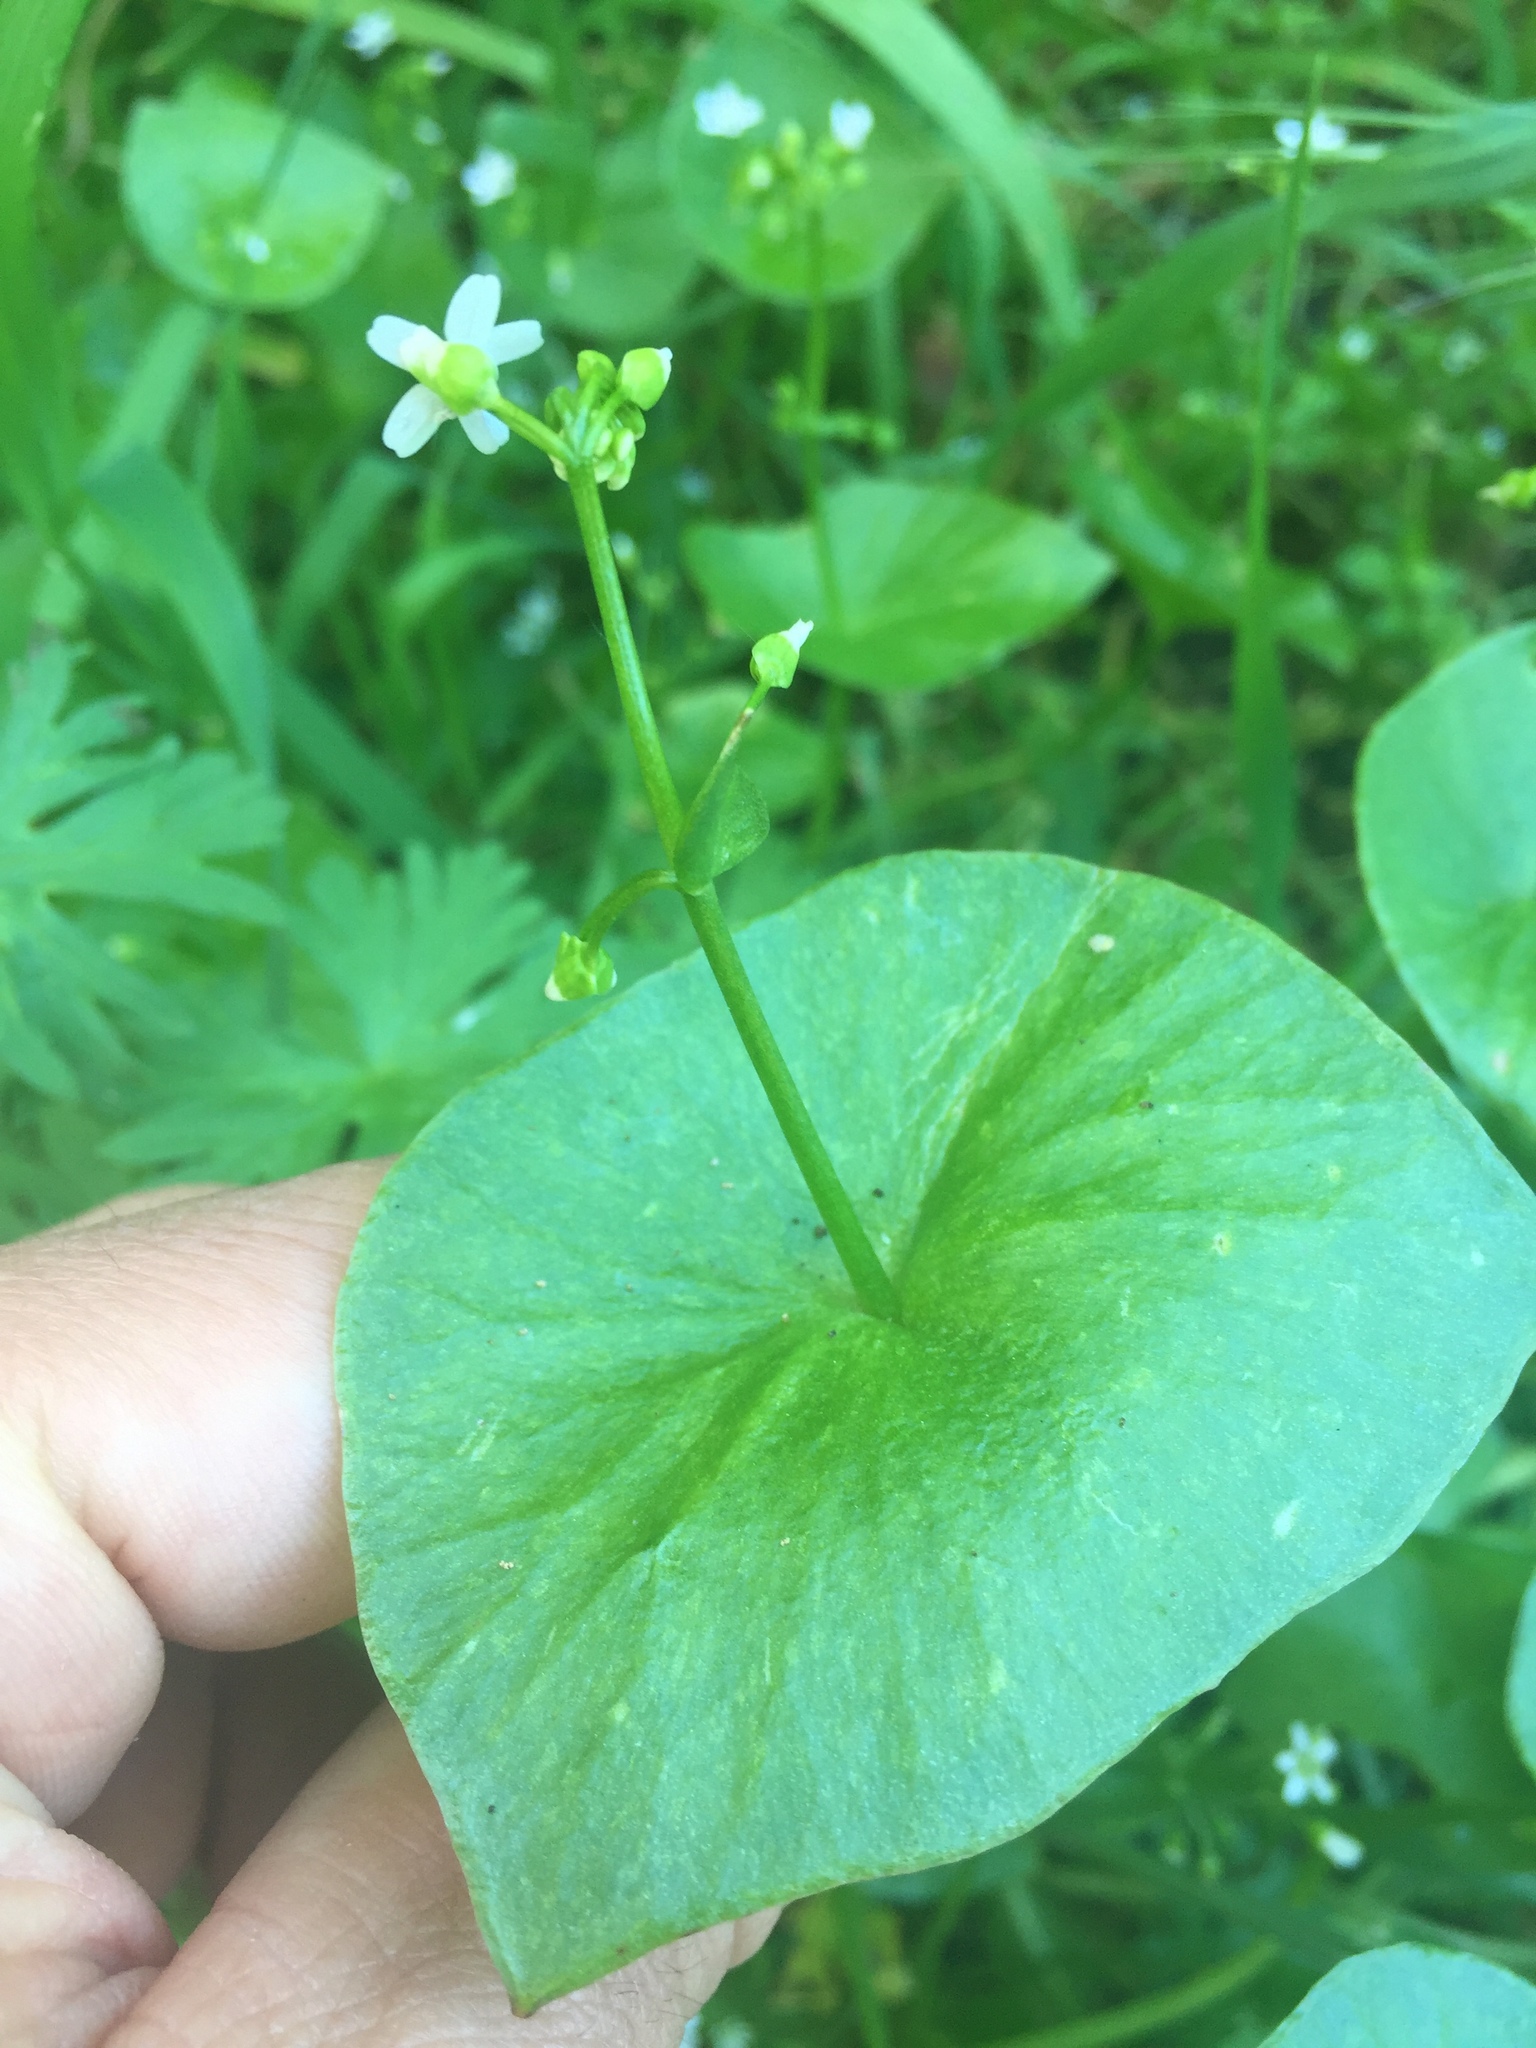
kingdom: Plantae
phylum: Tracheophyta
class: Magnoliopsida
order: Caryophyllales
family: Montiaceae
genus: Claytonia
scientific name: Claytonia perfoliata
